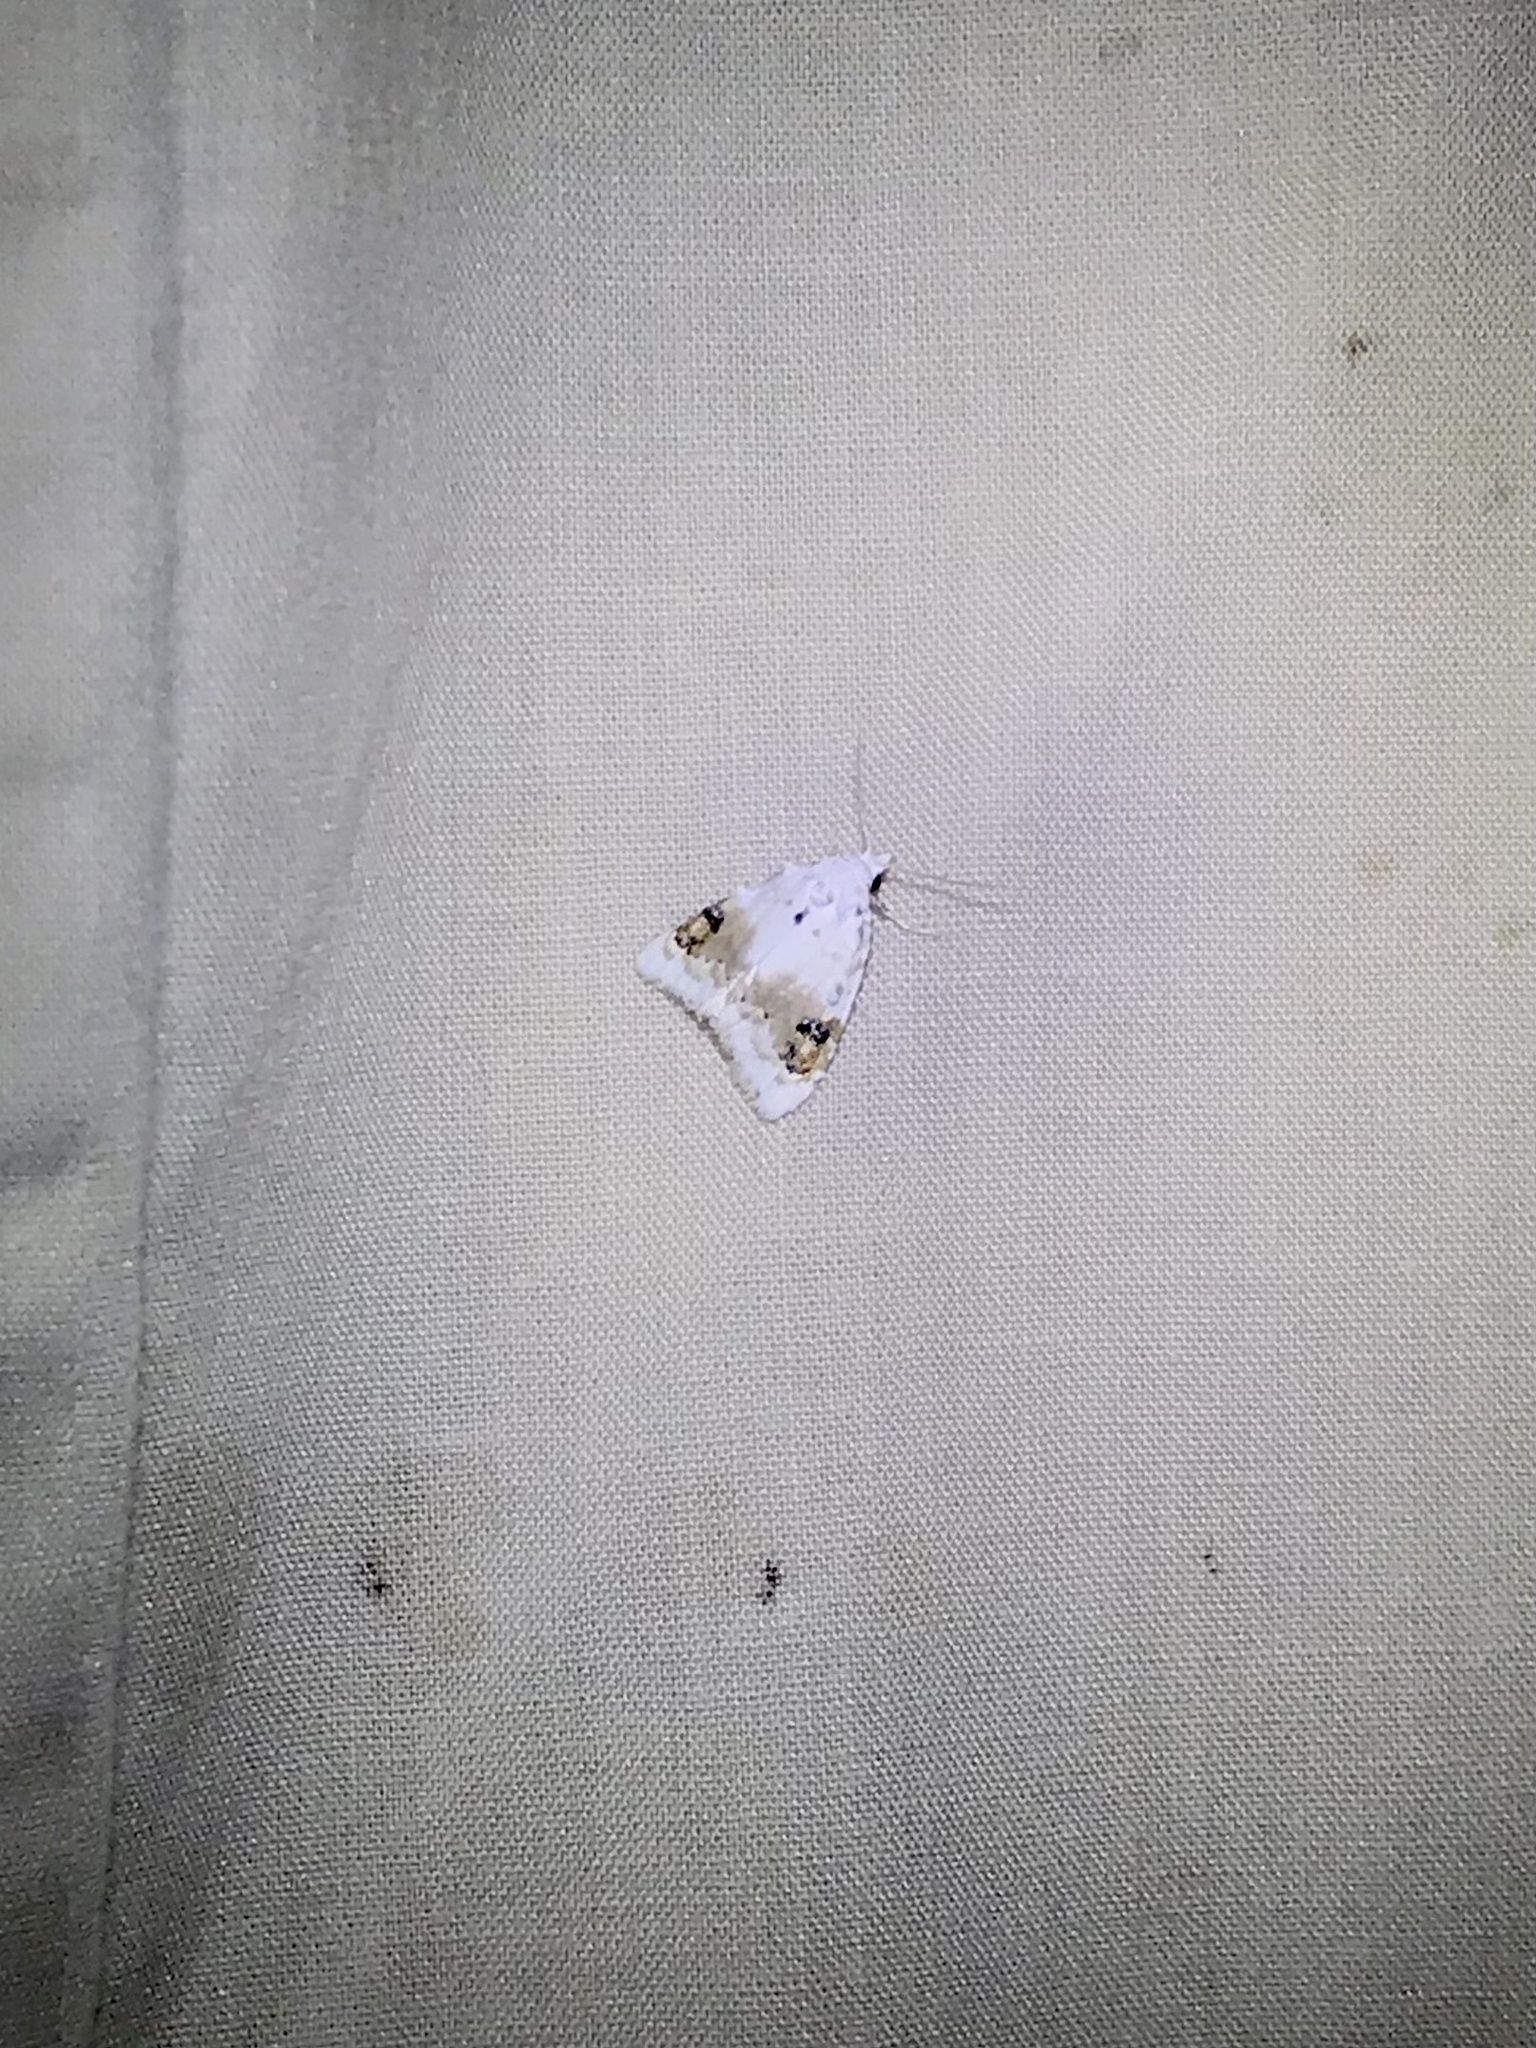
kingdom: Animalia
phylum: Arthropoda
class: Insecta
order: Lepidoptera
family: Nolidae
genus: Nola
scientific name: Nola cilicoides
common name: Blurry-patched nola moth
